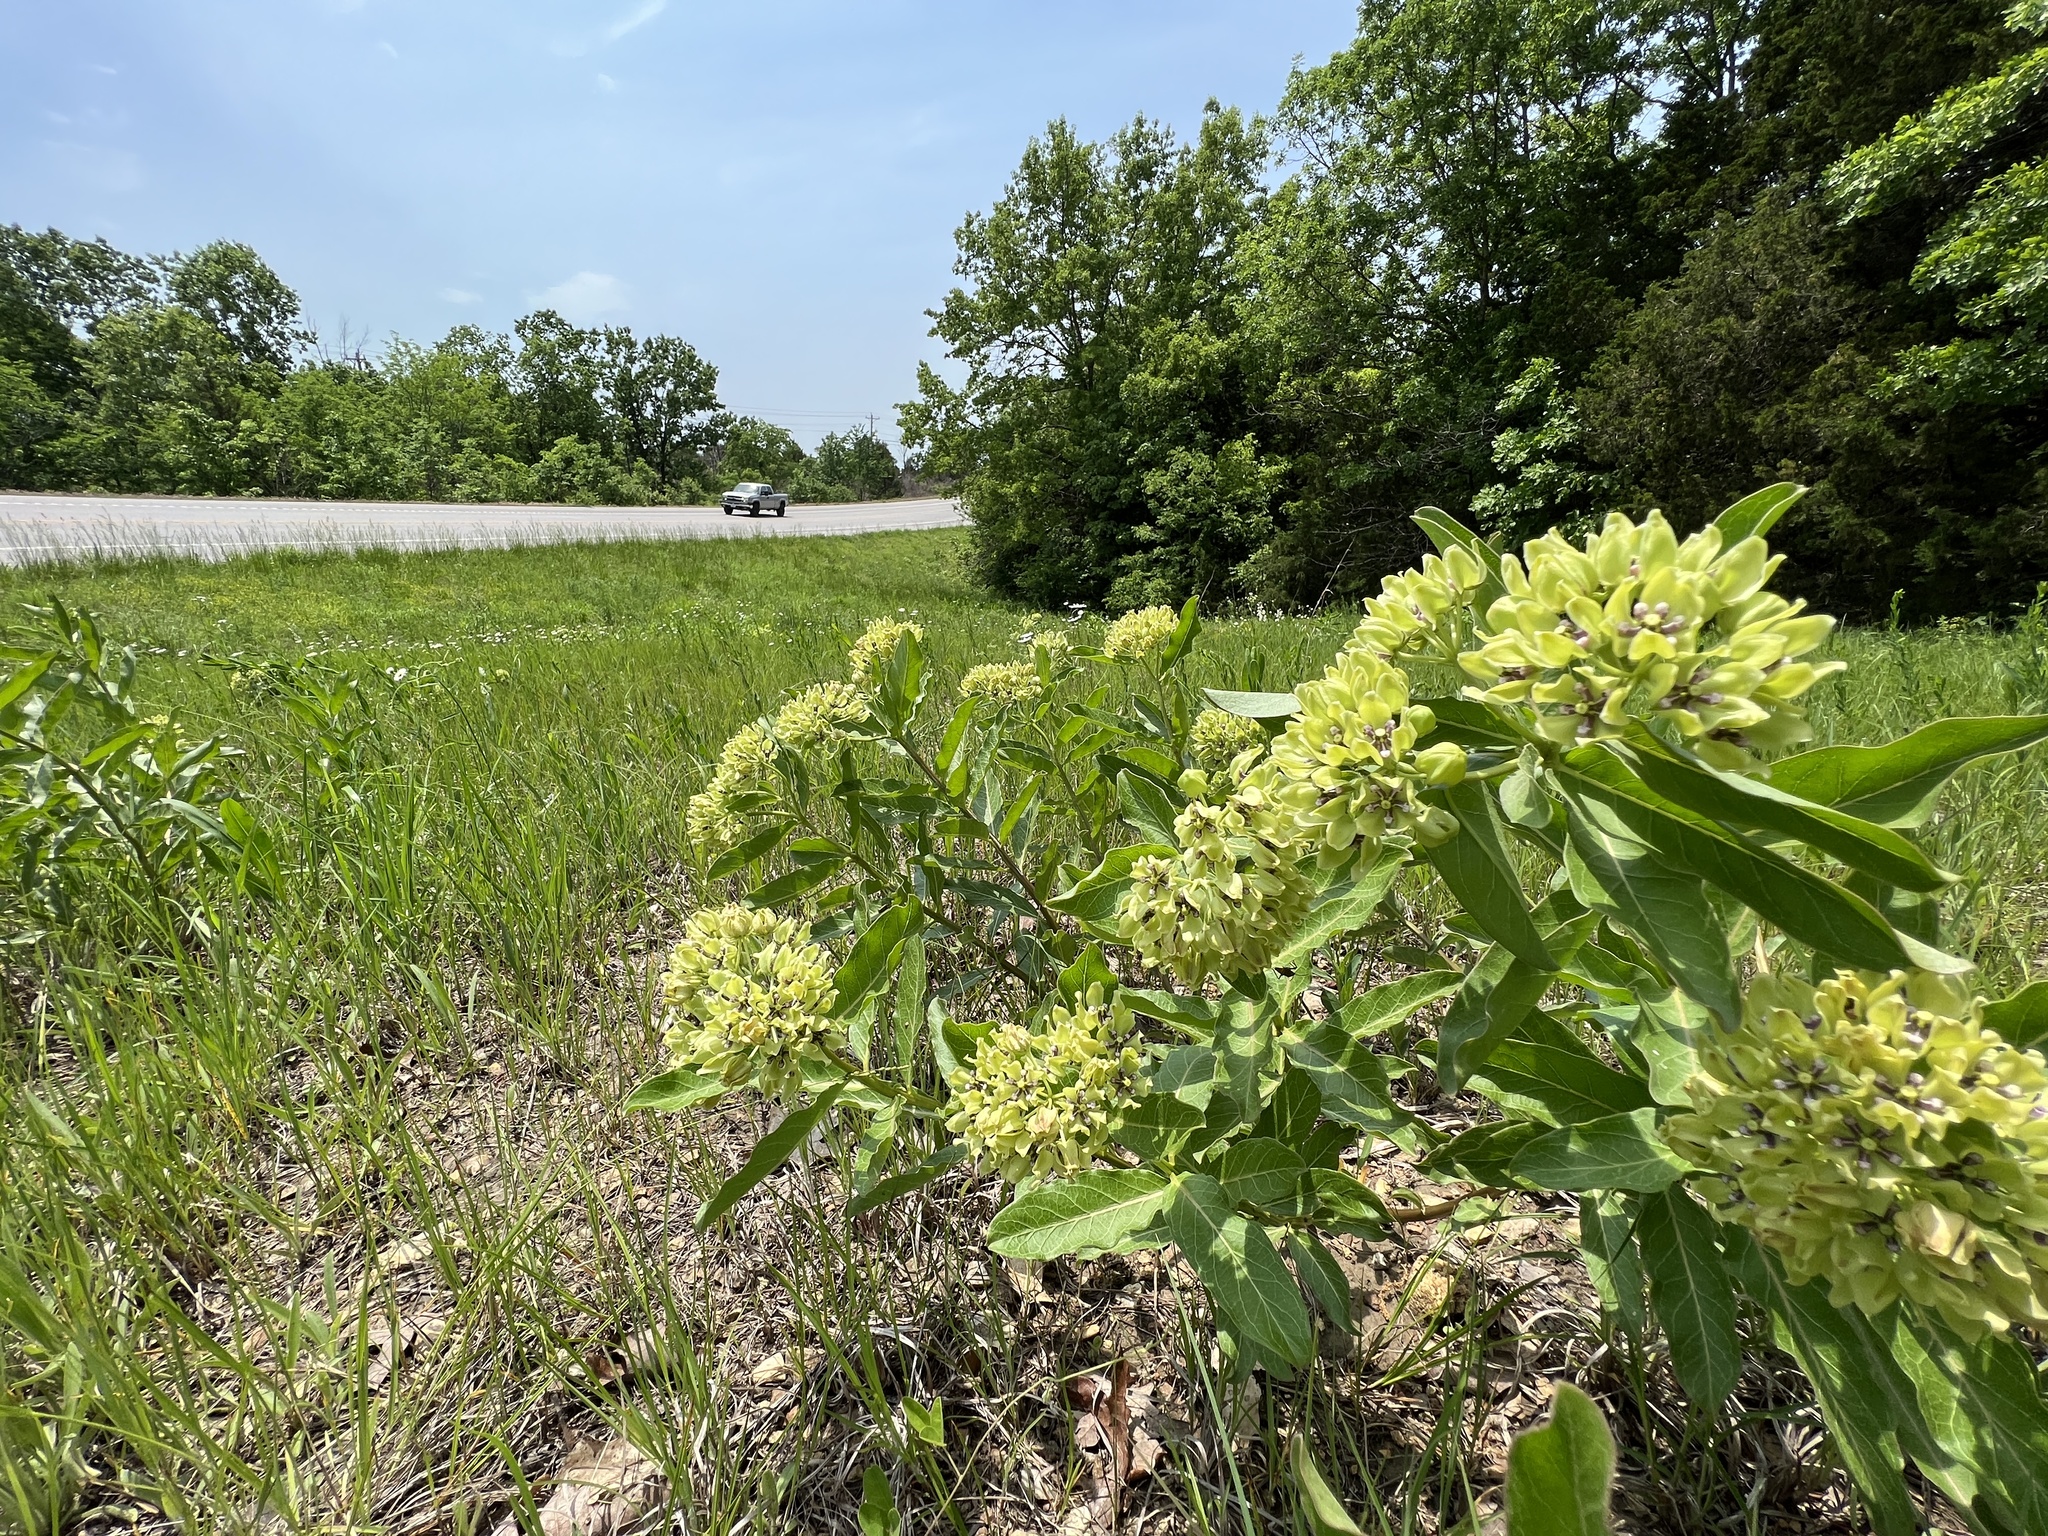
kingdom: Plantae
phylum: Tracheophyta
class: Magnoliopsida
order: Gentianales
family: Apocynaceae
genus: Asclepias
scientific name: Asclepias viridis
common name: Antelope-horns
